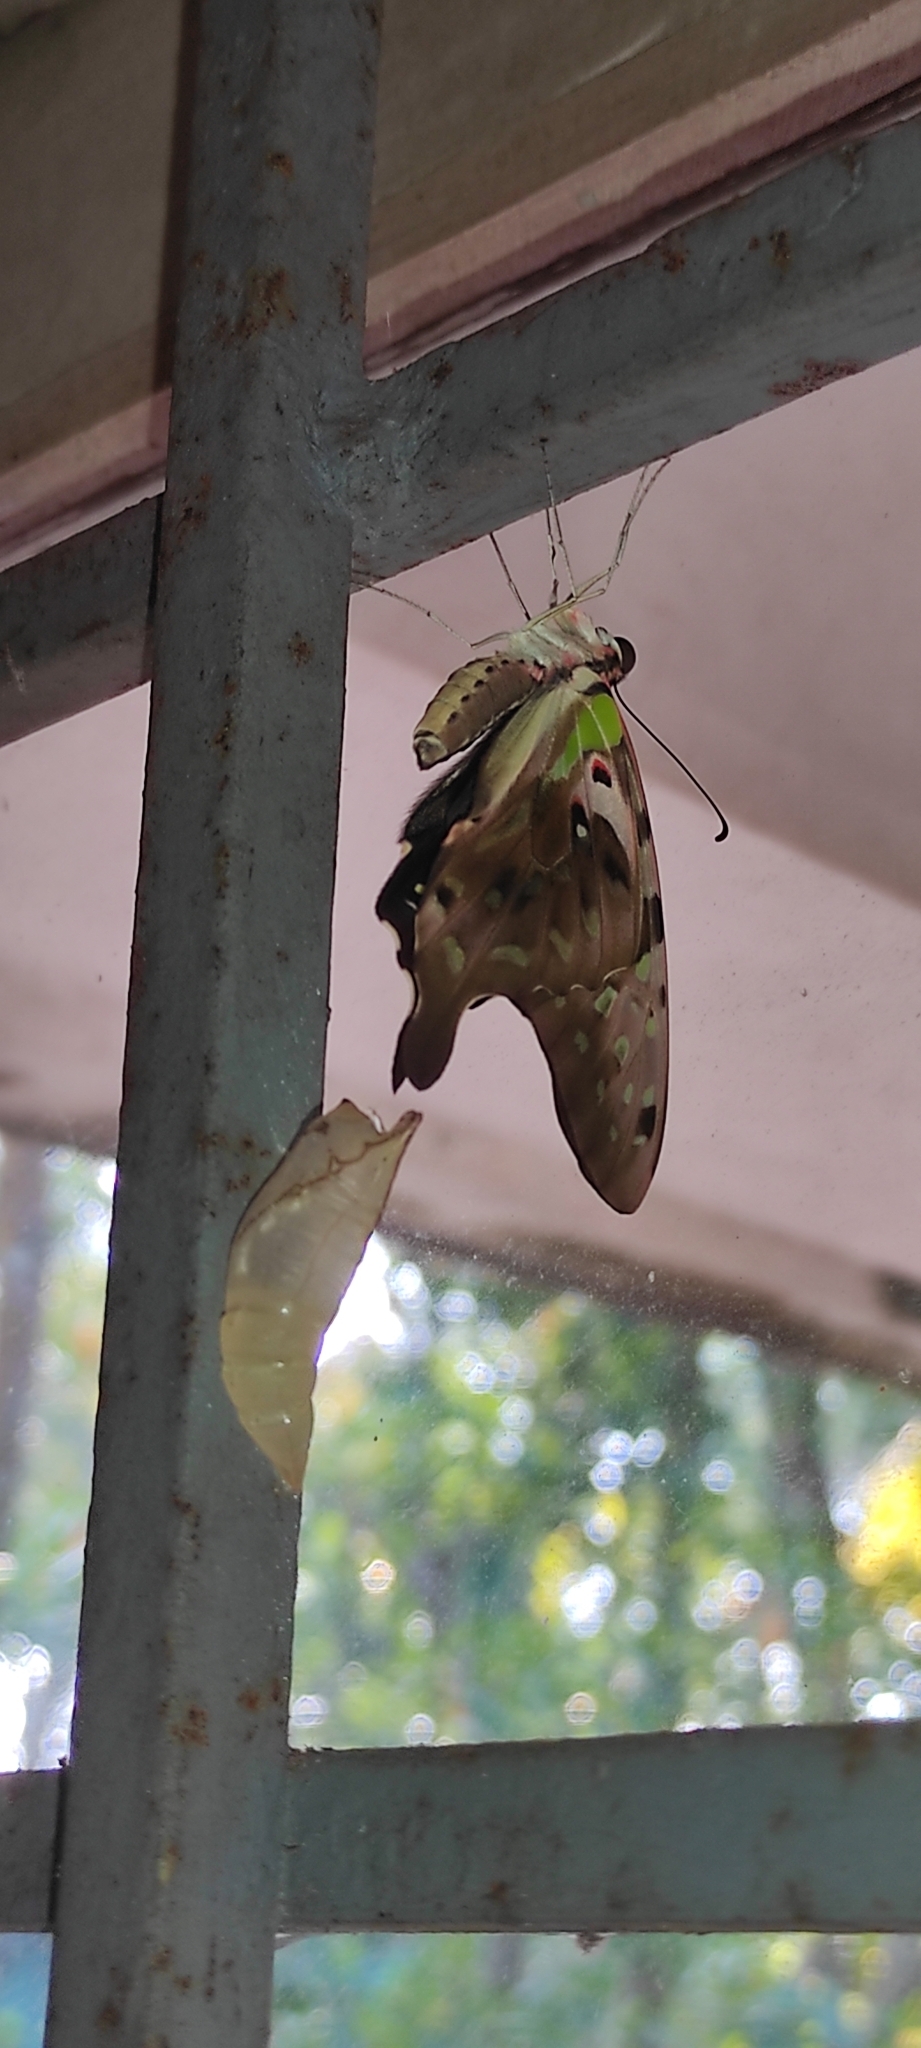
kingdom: Animalia
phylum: Arthropoda
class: Insecta
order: Lepidoptera
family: Papilionidae
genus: Graphium
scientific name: Graphium agamemnon
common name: Tailed jay
